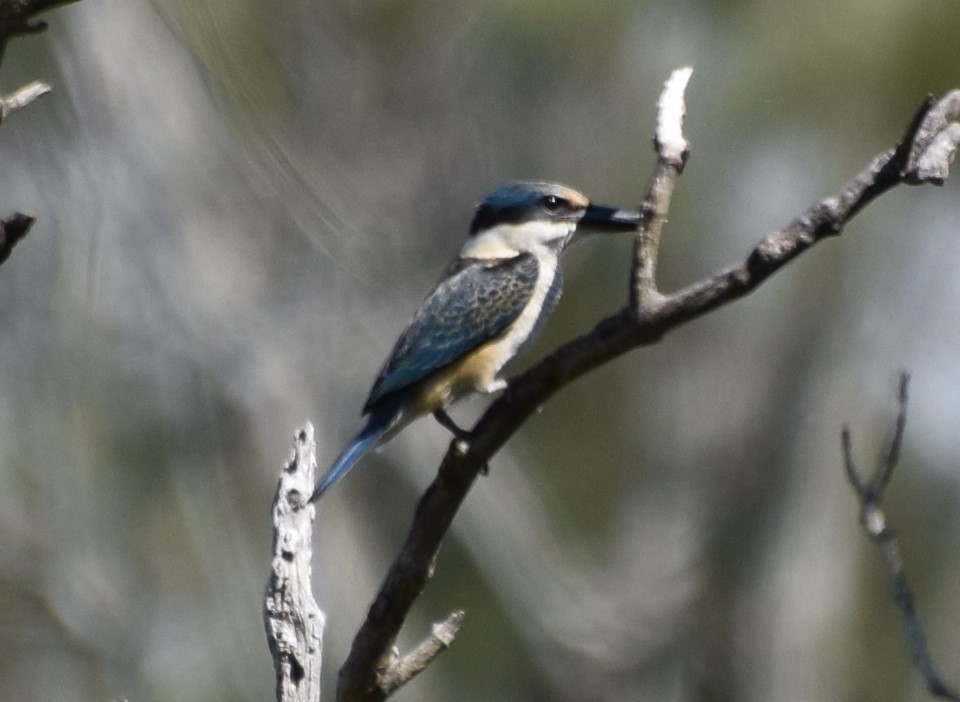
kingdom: Animalia
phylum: Chordata
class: Aves
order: Coraciiformes
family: Alcedinidae
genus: Todiramphus
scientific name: Todiramphus sanctus
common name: Sacred kingfisher
